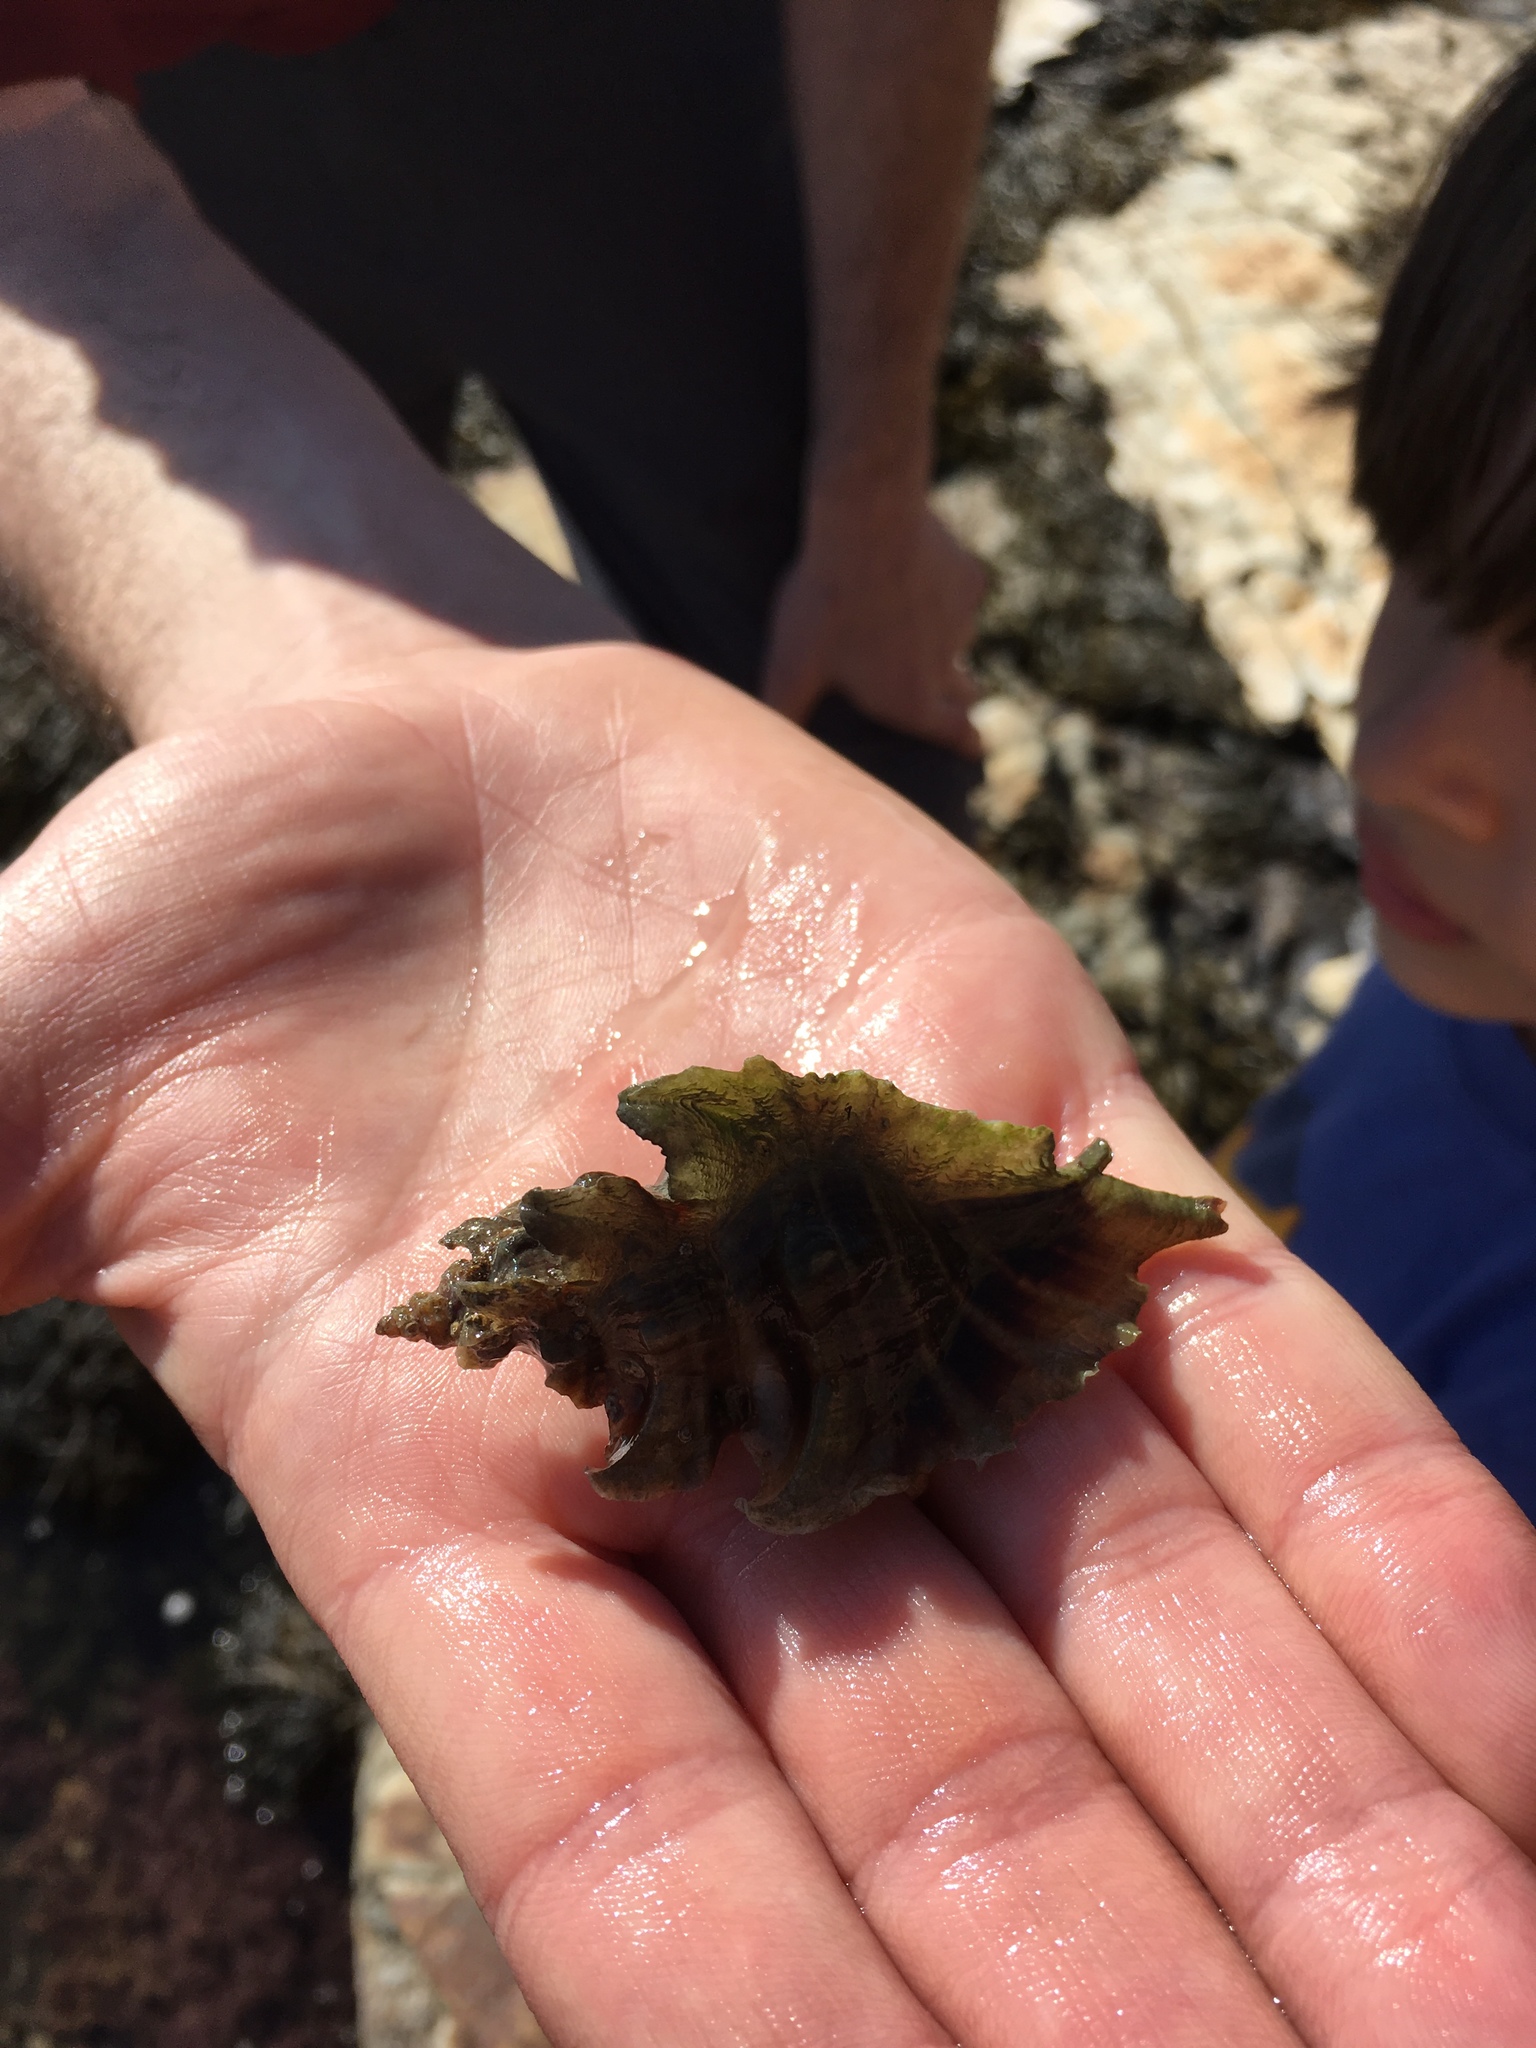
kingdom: Animalia
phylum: Mollusca
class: Gastropoda
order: Neogastropoda
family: Muricidae
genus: Pteropurpura
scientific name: Pteropurpura trialata
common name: Three-winged murex
